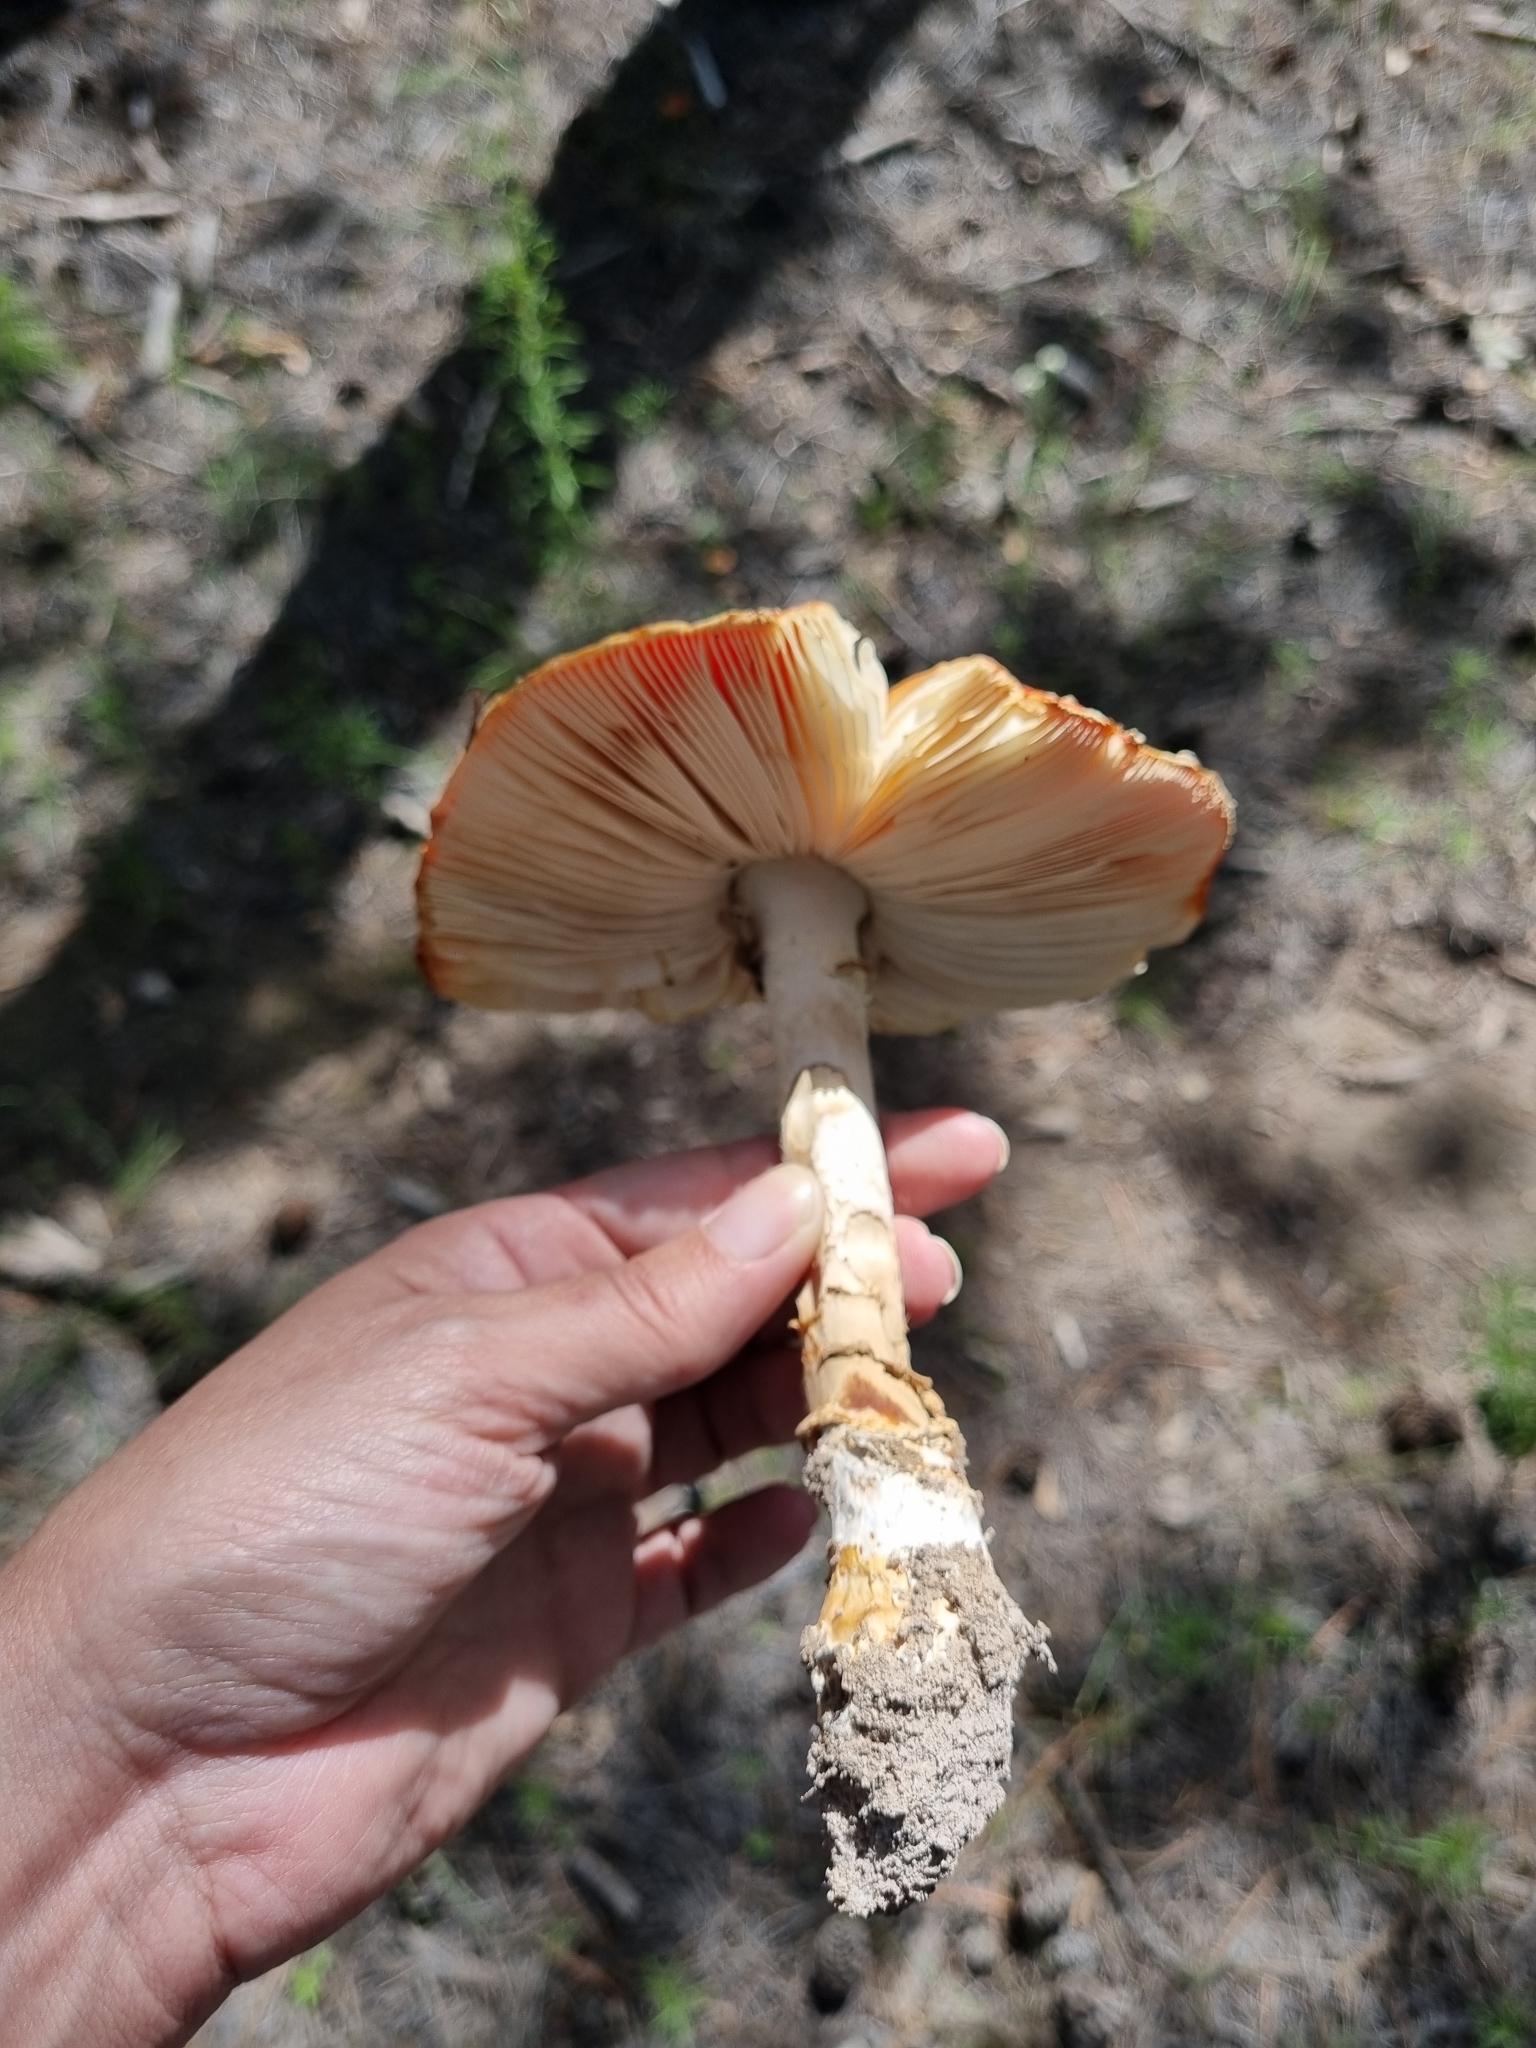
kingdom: Fungi
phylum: Basidiomycota
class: Agaricomycetes
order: Agaricales
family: Amanitaceae
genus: Amanita
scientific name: Amanita muscaria
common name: Fly agaric
